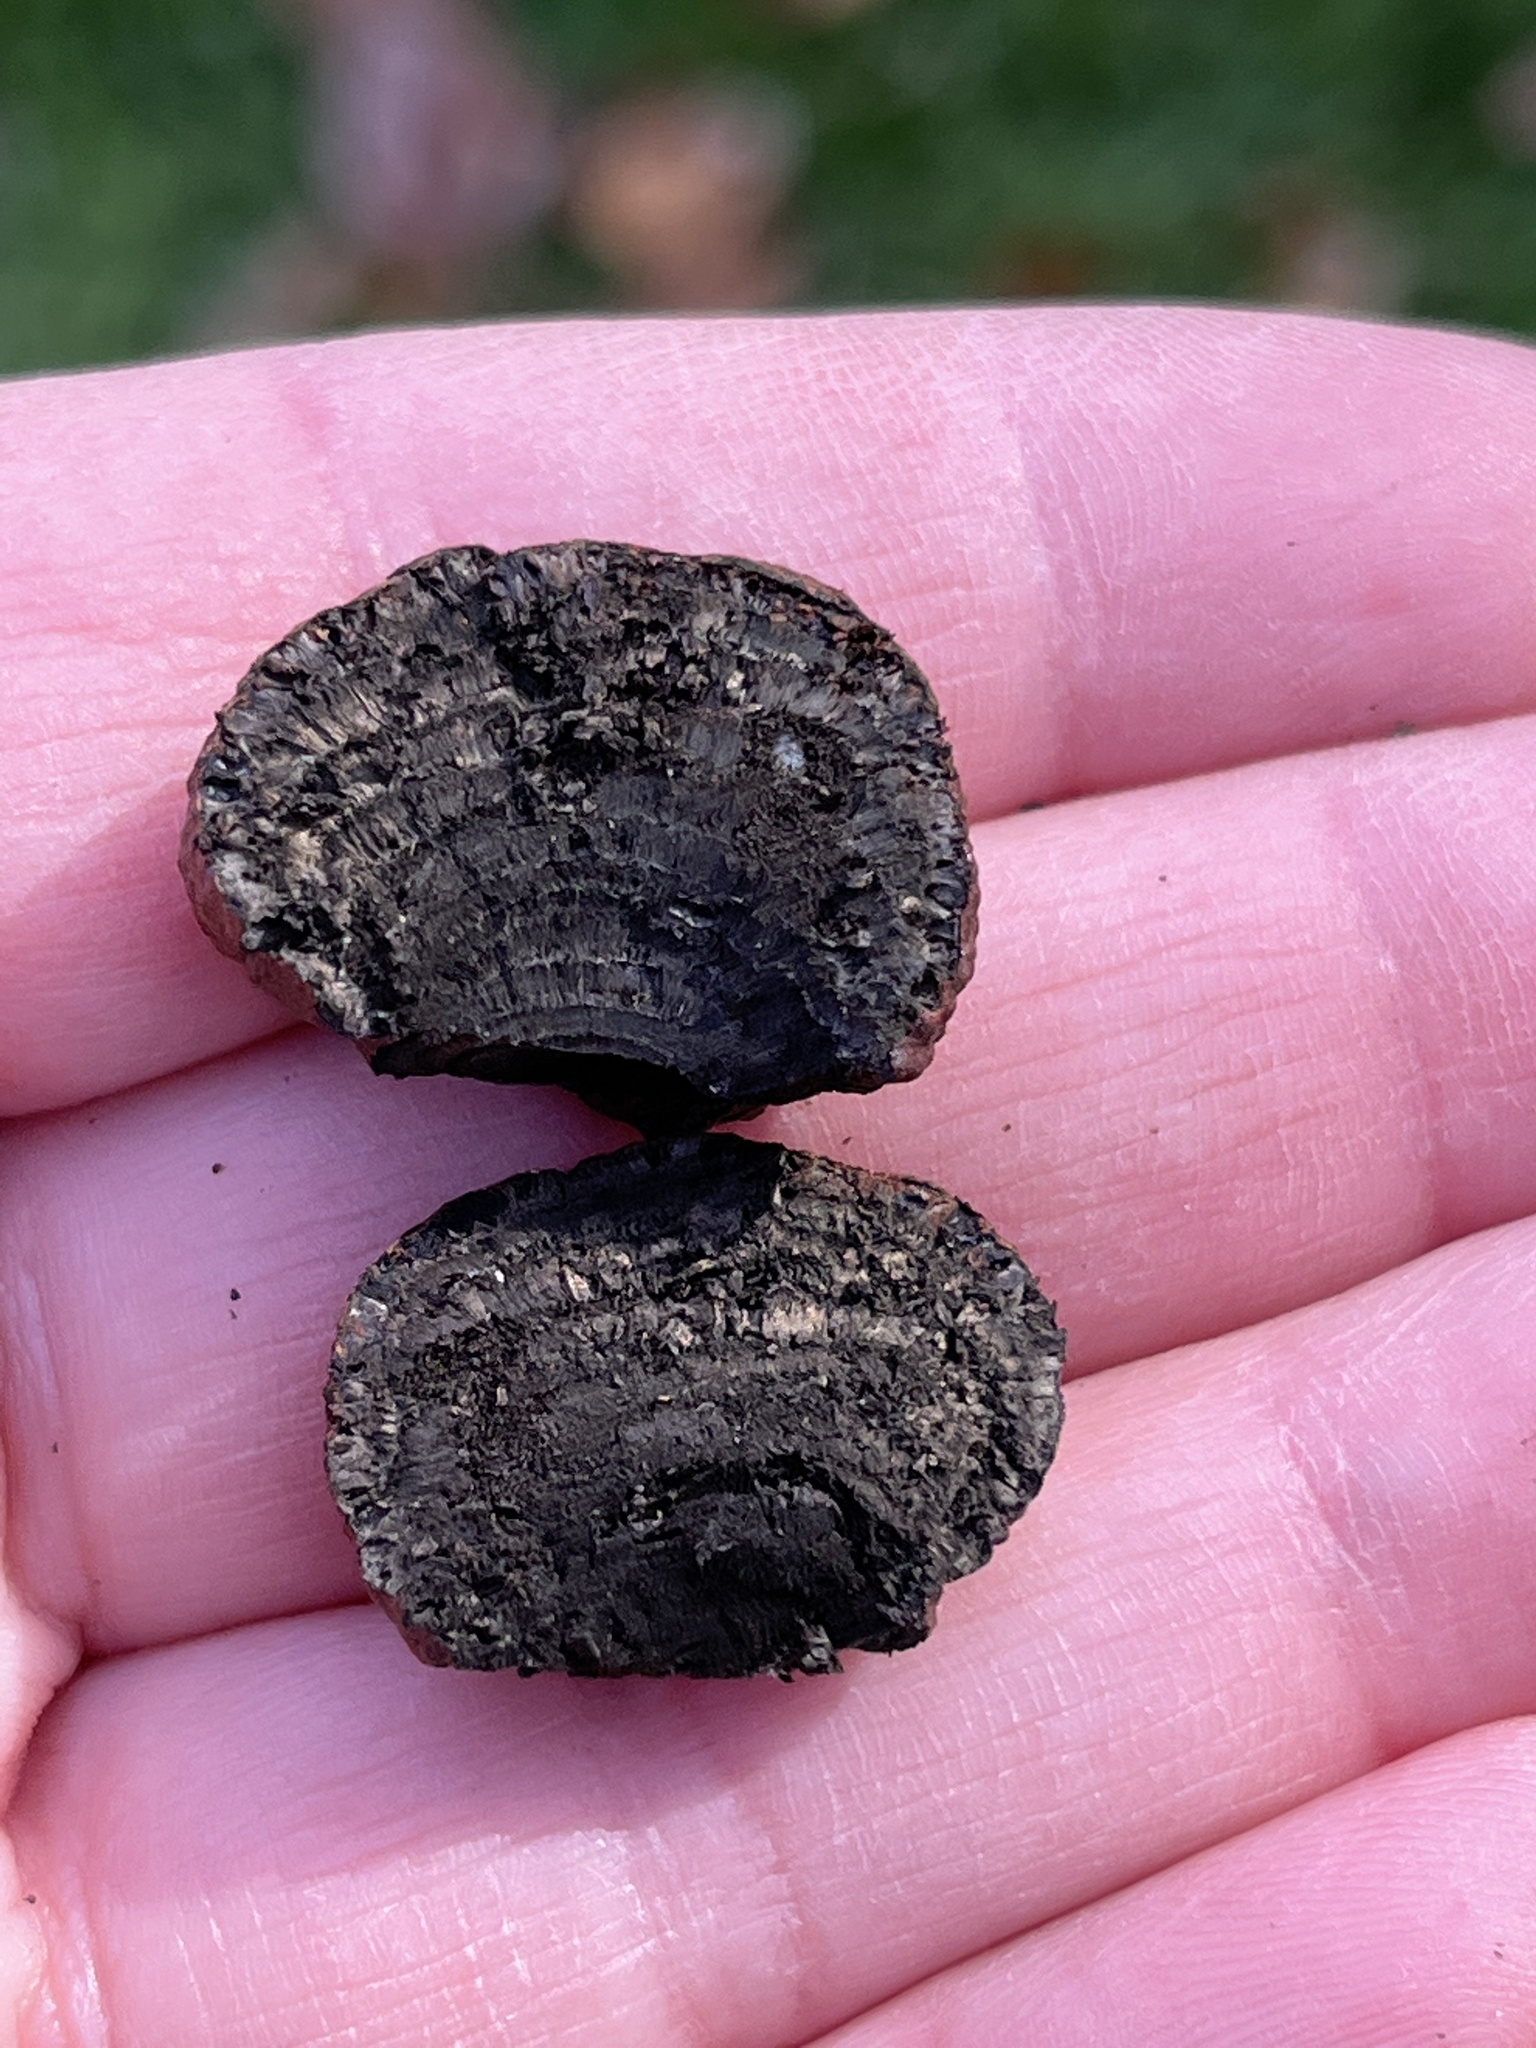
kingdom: Fungi
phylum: Ascomycota
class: Sordariomycetes
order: Xylariales
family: Hypoxylaceae
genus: Daldinia
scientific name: Daldinia childiae
